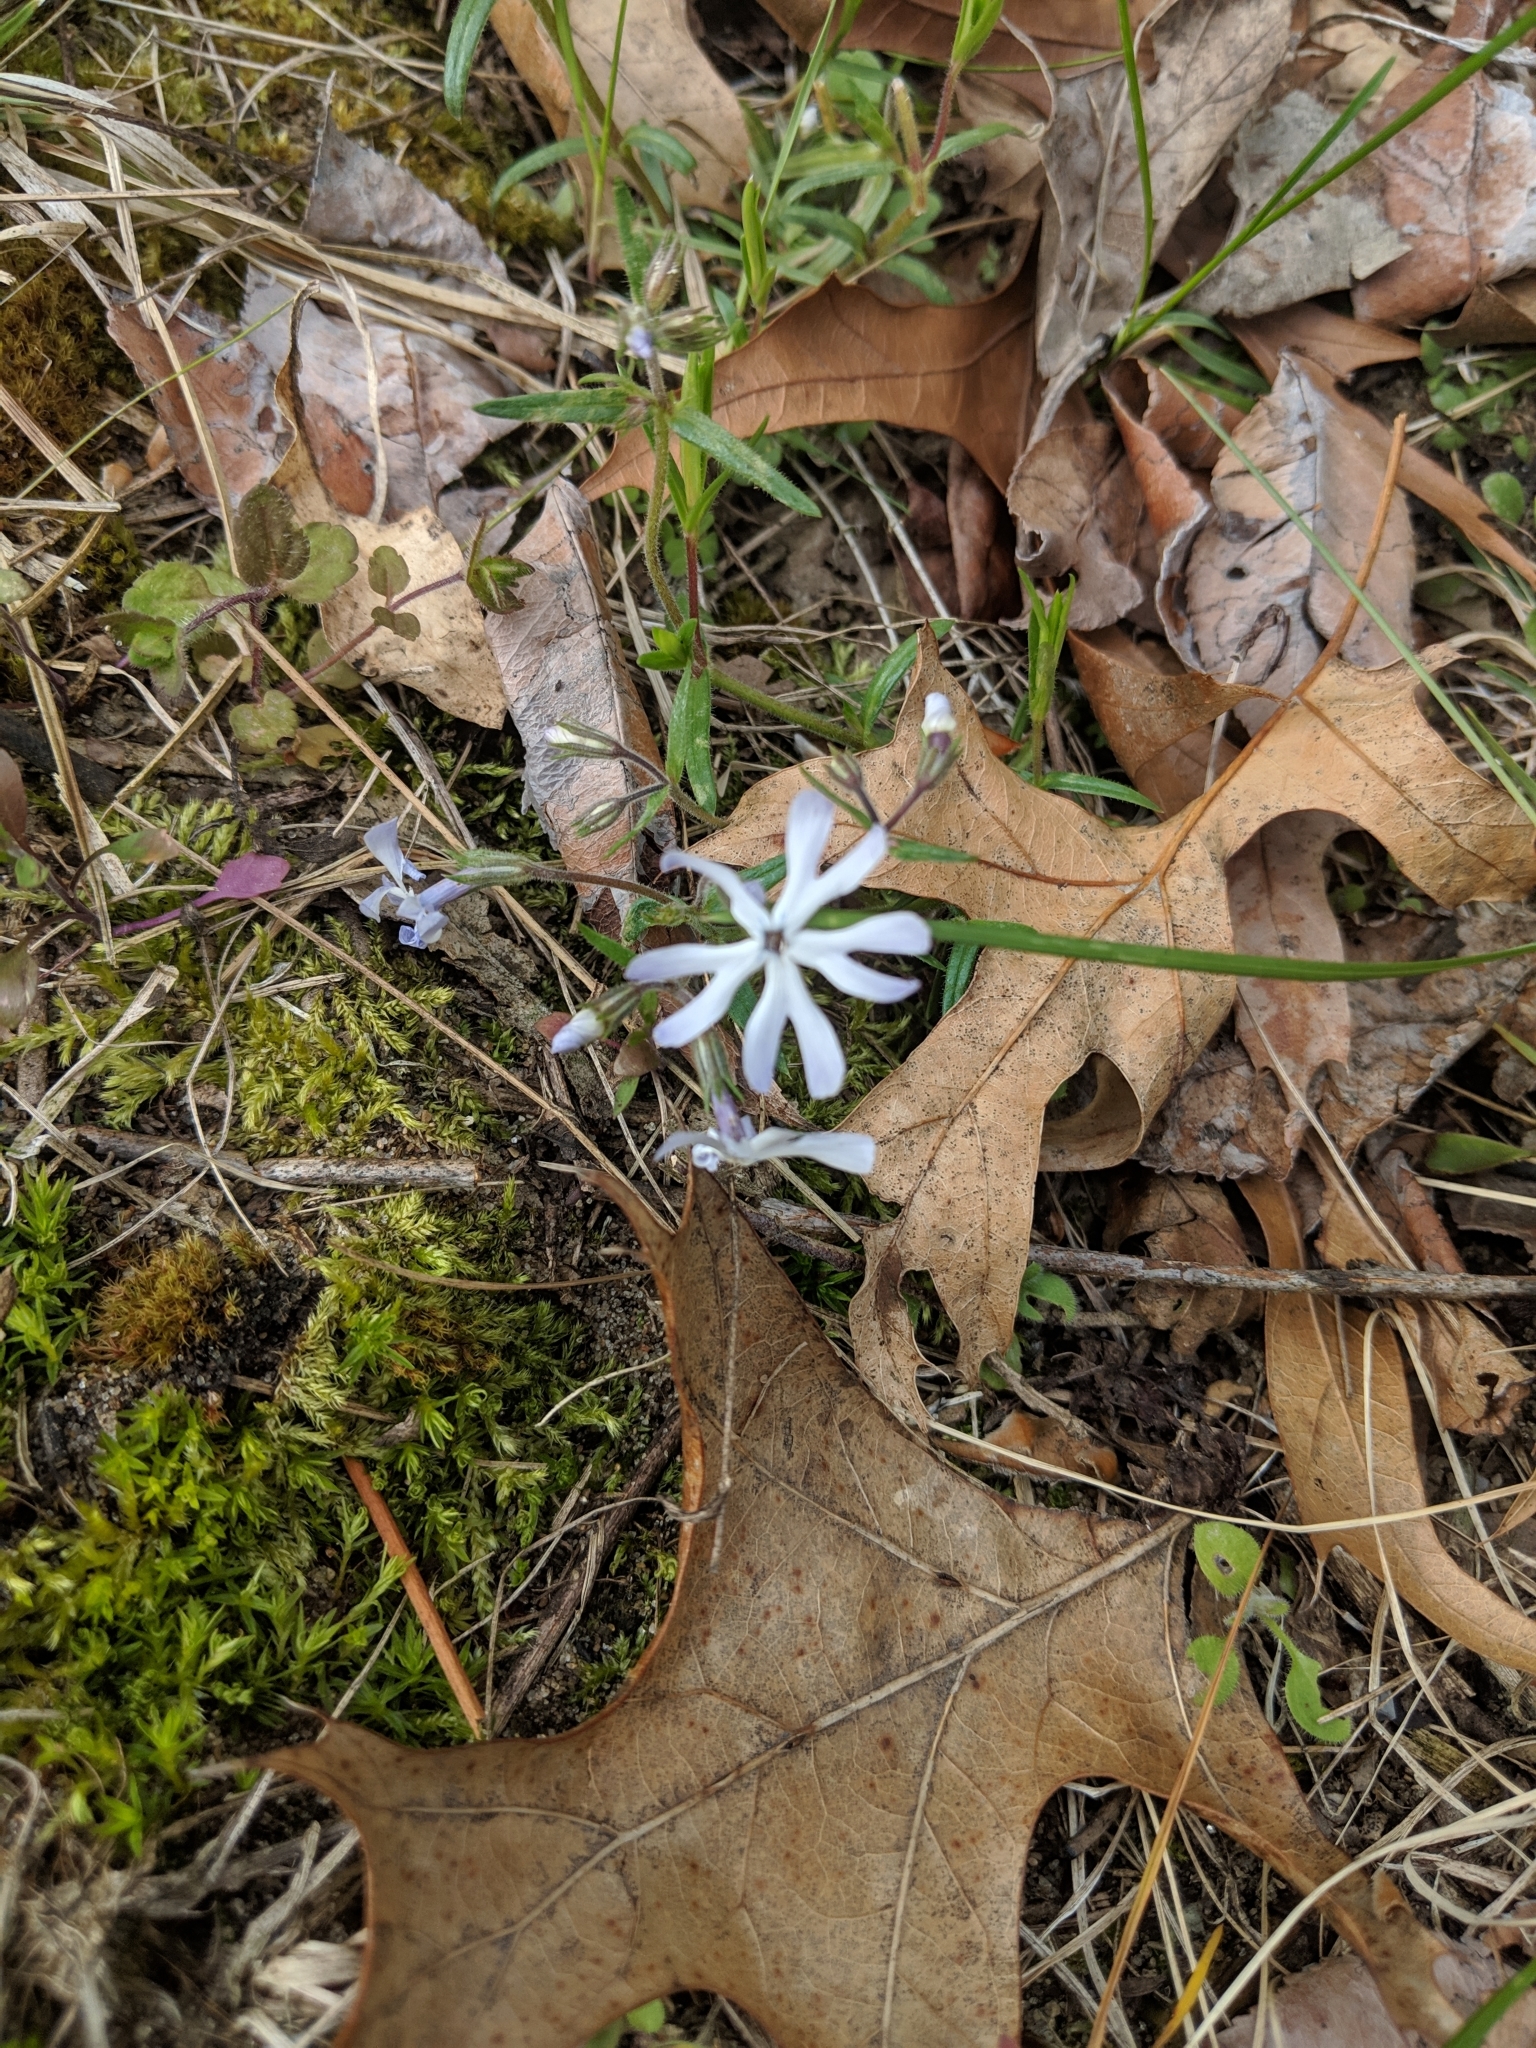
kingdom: Plantae
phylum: Tracheophyta
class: Magnoliopsida
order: Ericales
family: Polemoniaceae
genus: Phlox
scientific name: Phlox bifida
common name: Sand phlox
